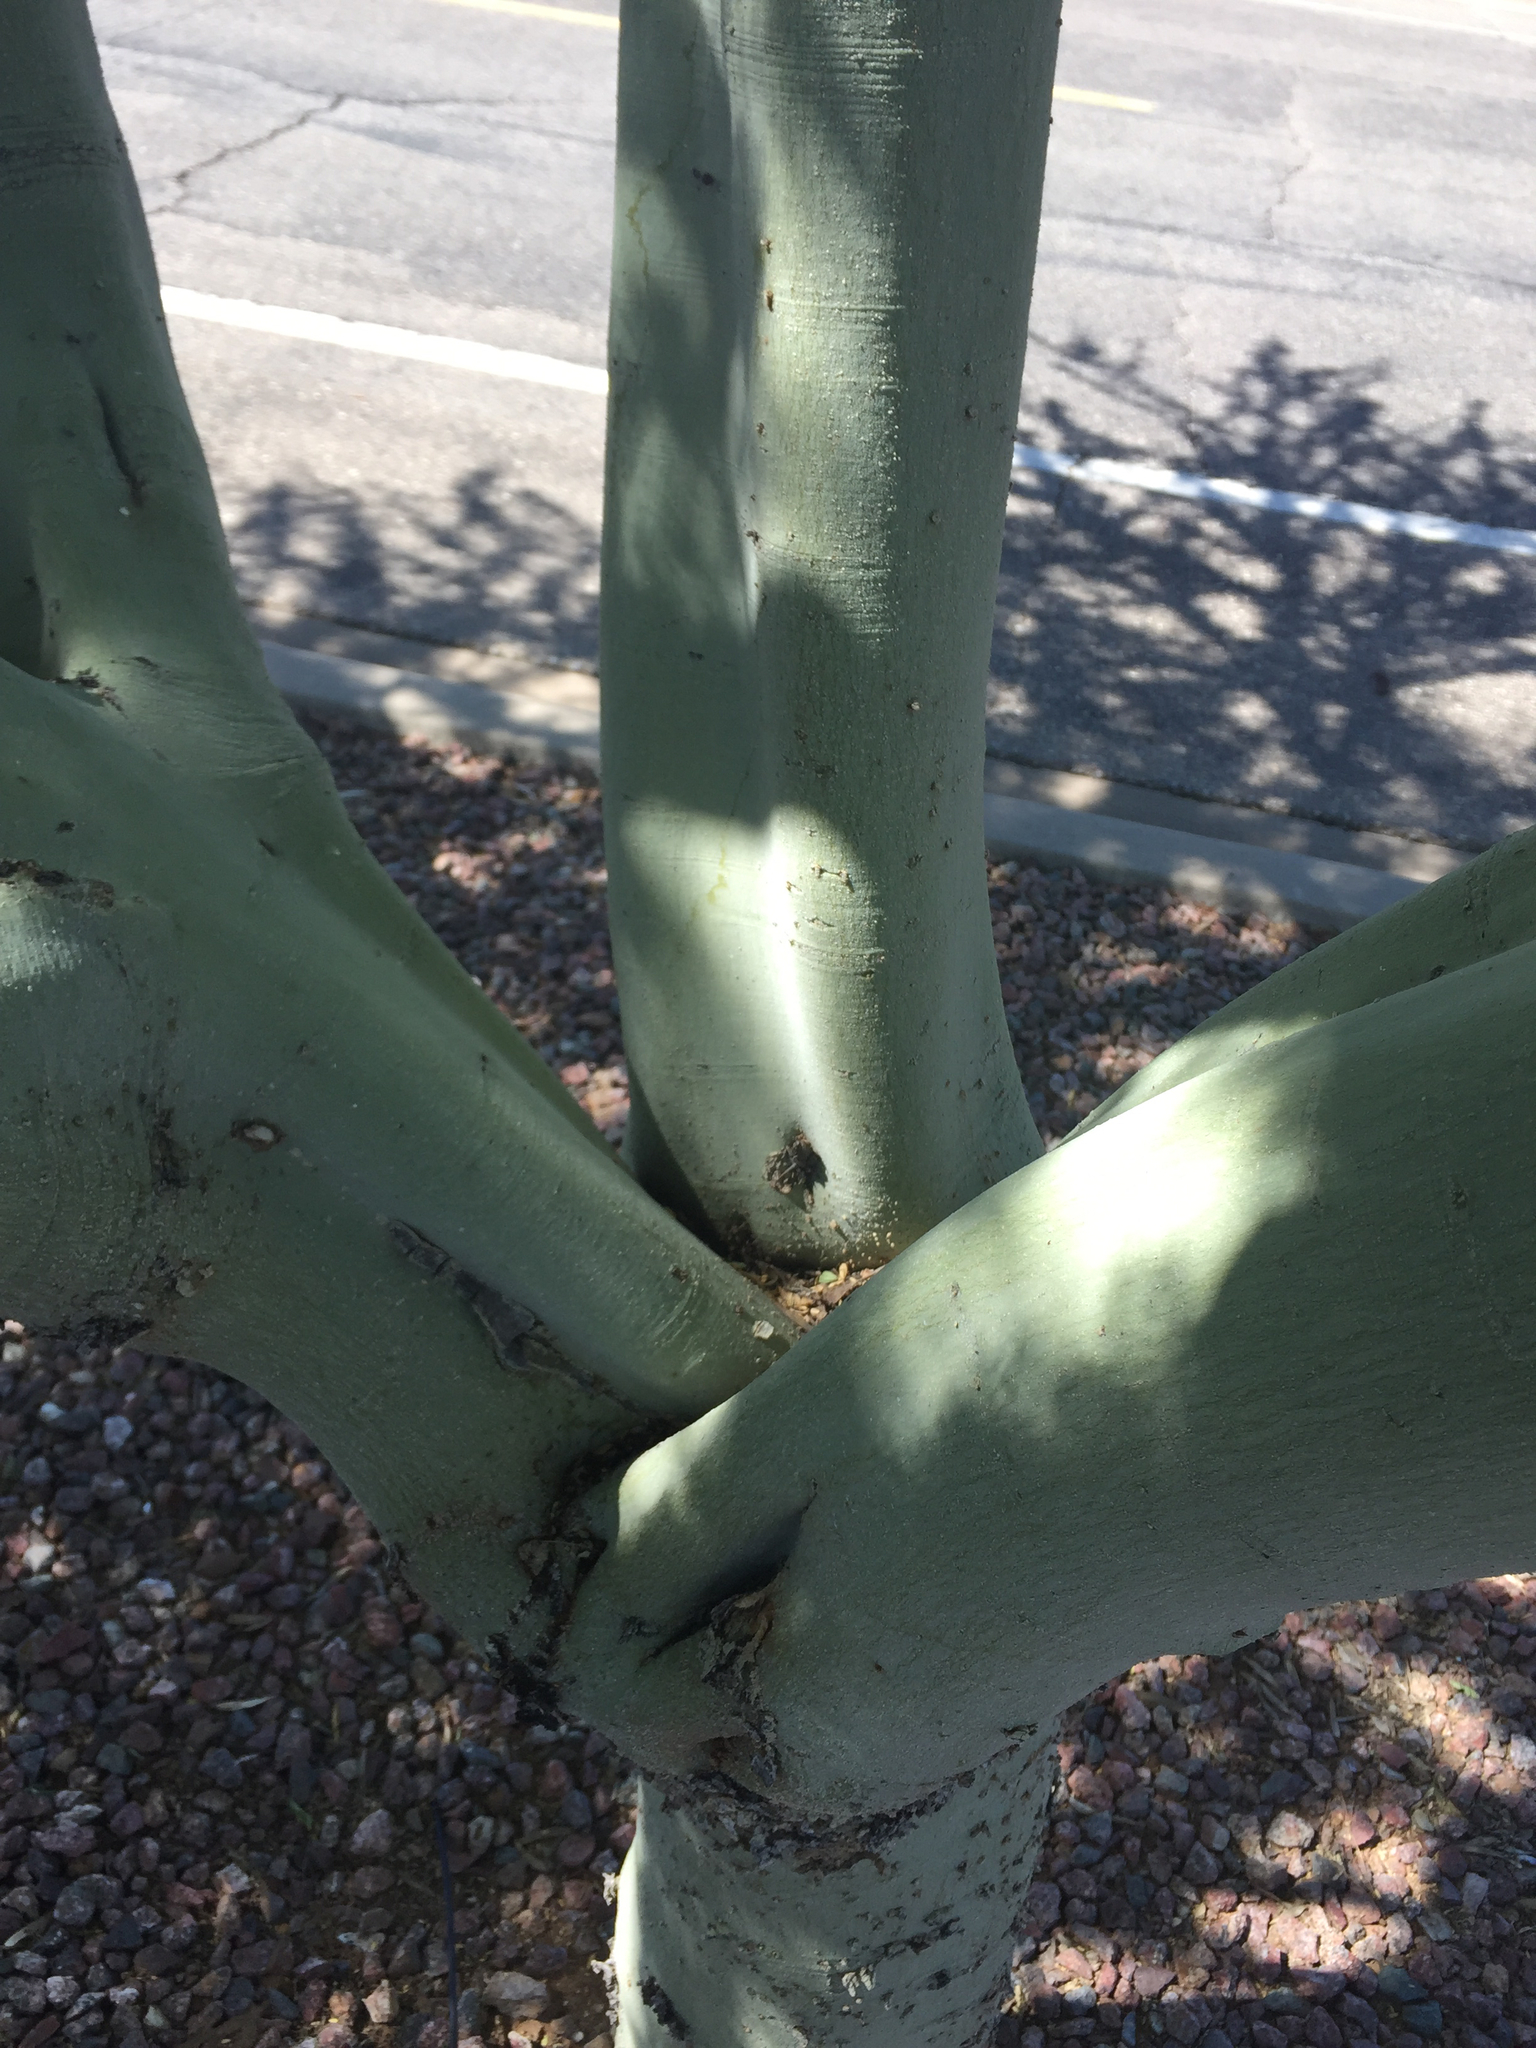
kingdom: Plantae
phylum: Tracheophyta
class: Magnoliopsida
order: Fabales
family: Fabaceae
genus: Parkinsonia
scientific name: Parkinsonia florida
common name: Blue paloverde
